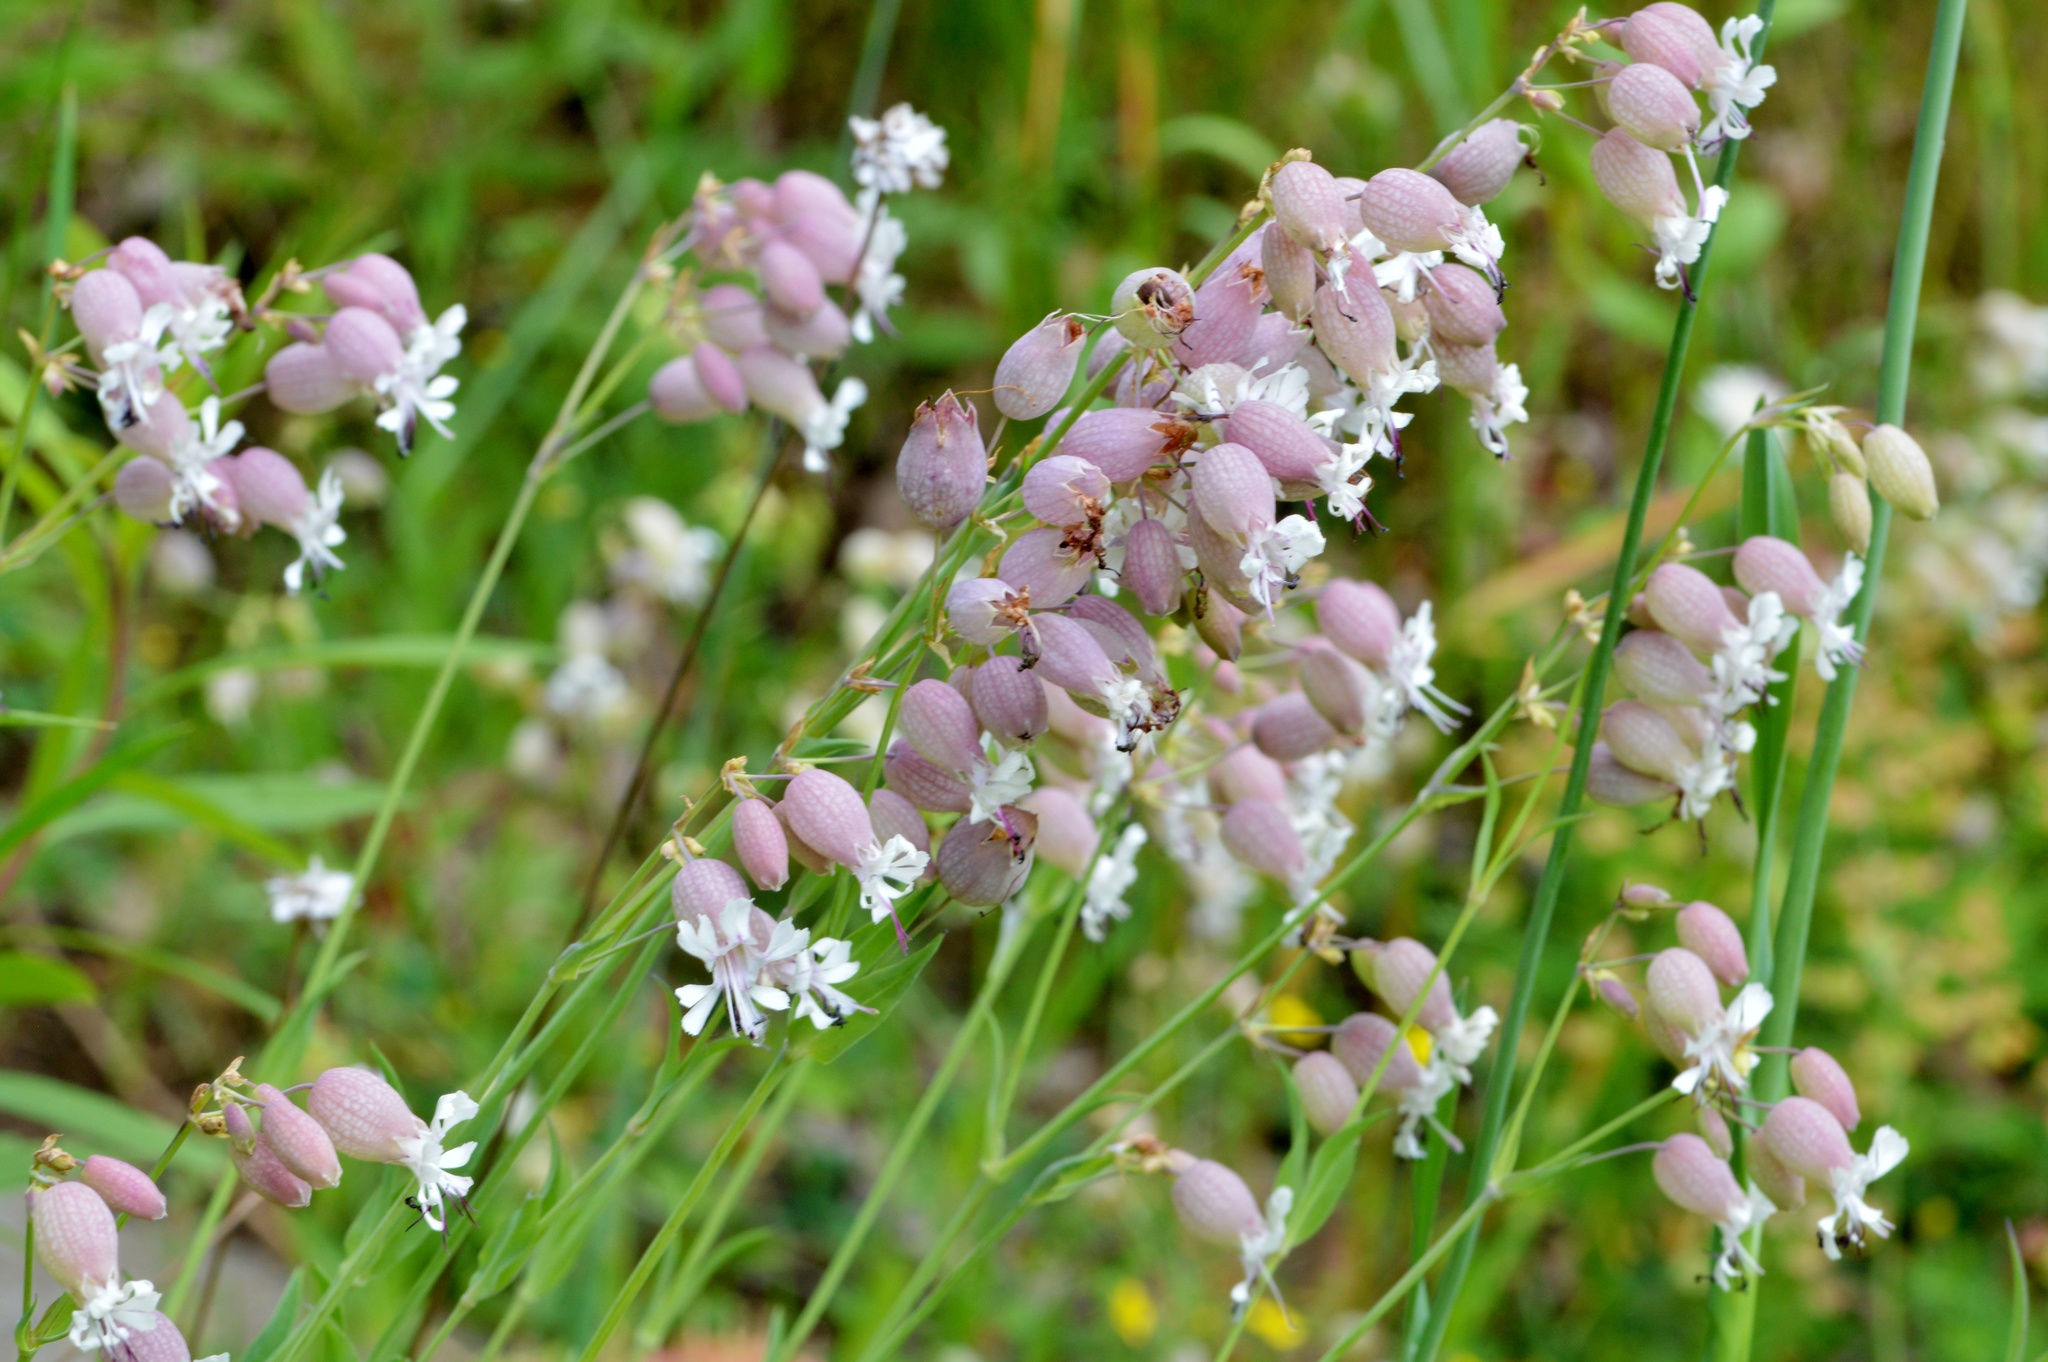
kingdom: Plantae
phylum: Tracheophyta
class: Magnoliopsida
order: Caryophyllales
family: Caryophyllaceae
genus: Silene
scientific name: Silene vulgaris
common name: Bladder campion
